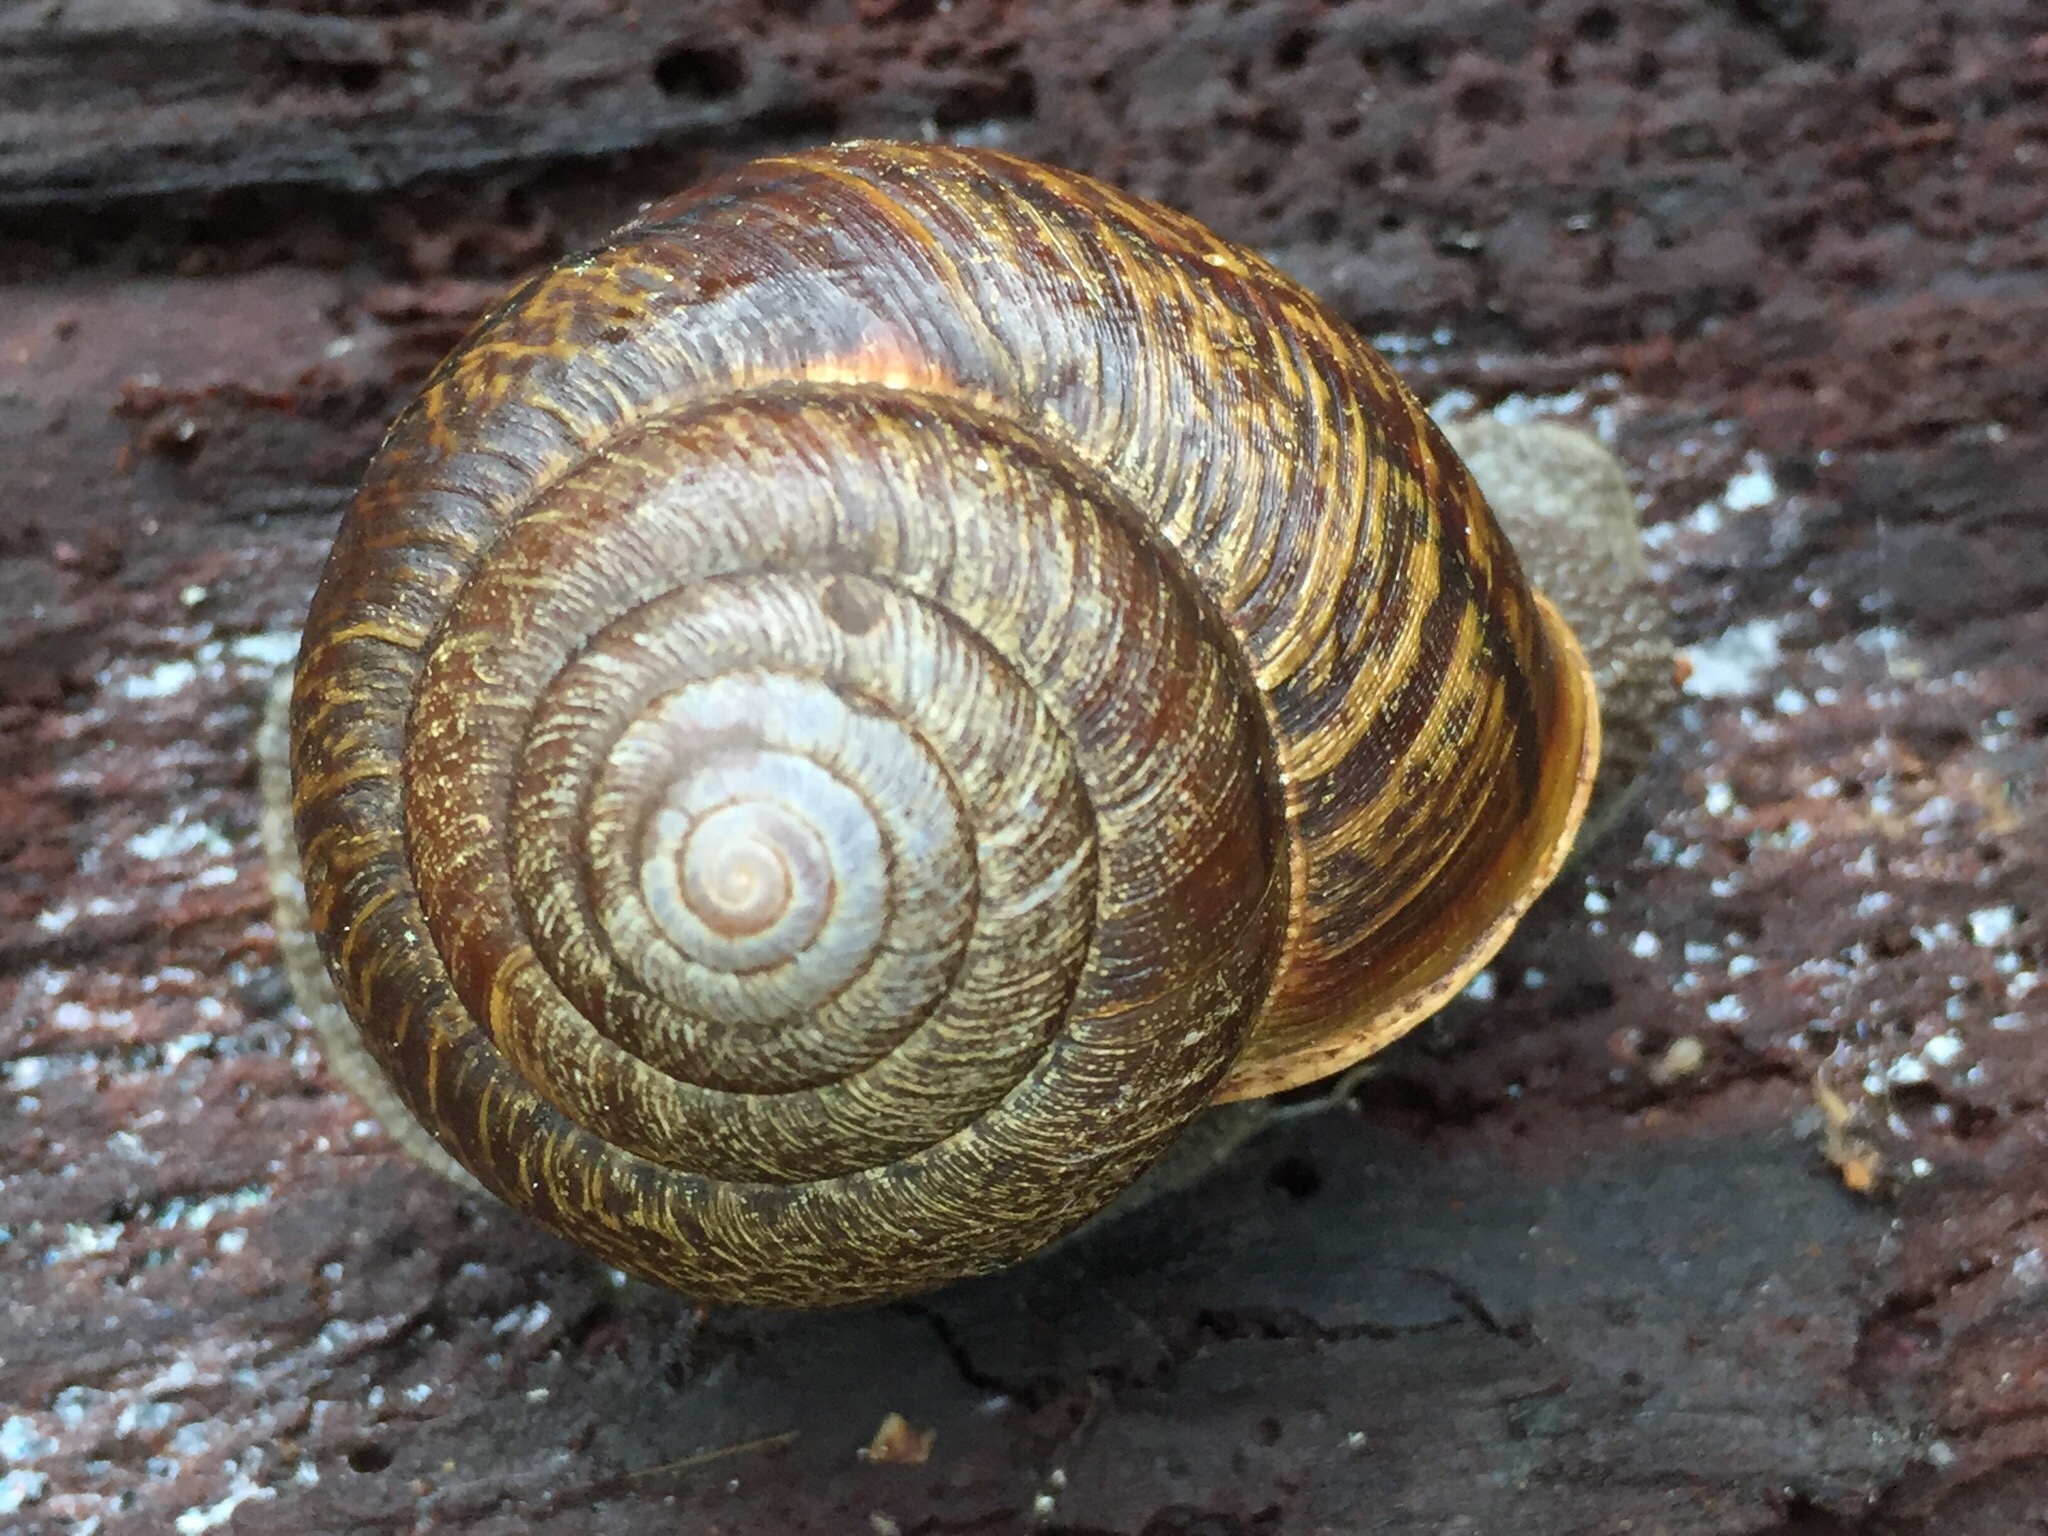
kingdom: Animalia
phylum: Mollusca
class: Gastropoda
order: Stylommatophora
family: Xanthonychidae
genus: Helminthoglypta
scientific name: Helminthoglypta arrosa
